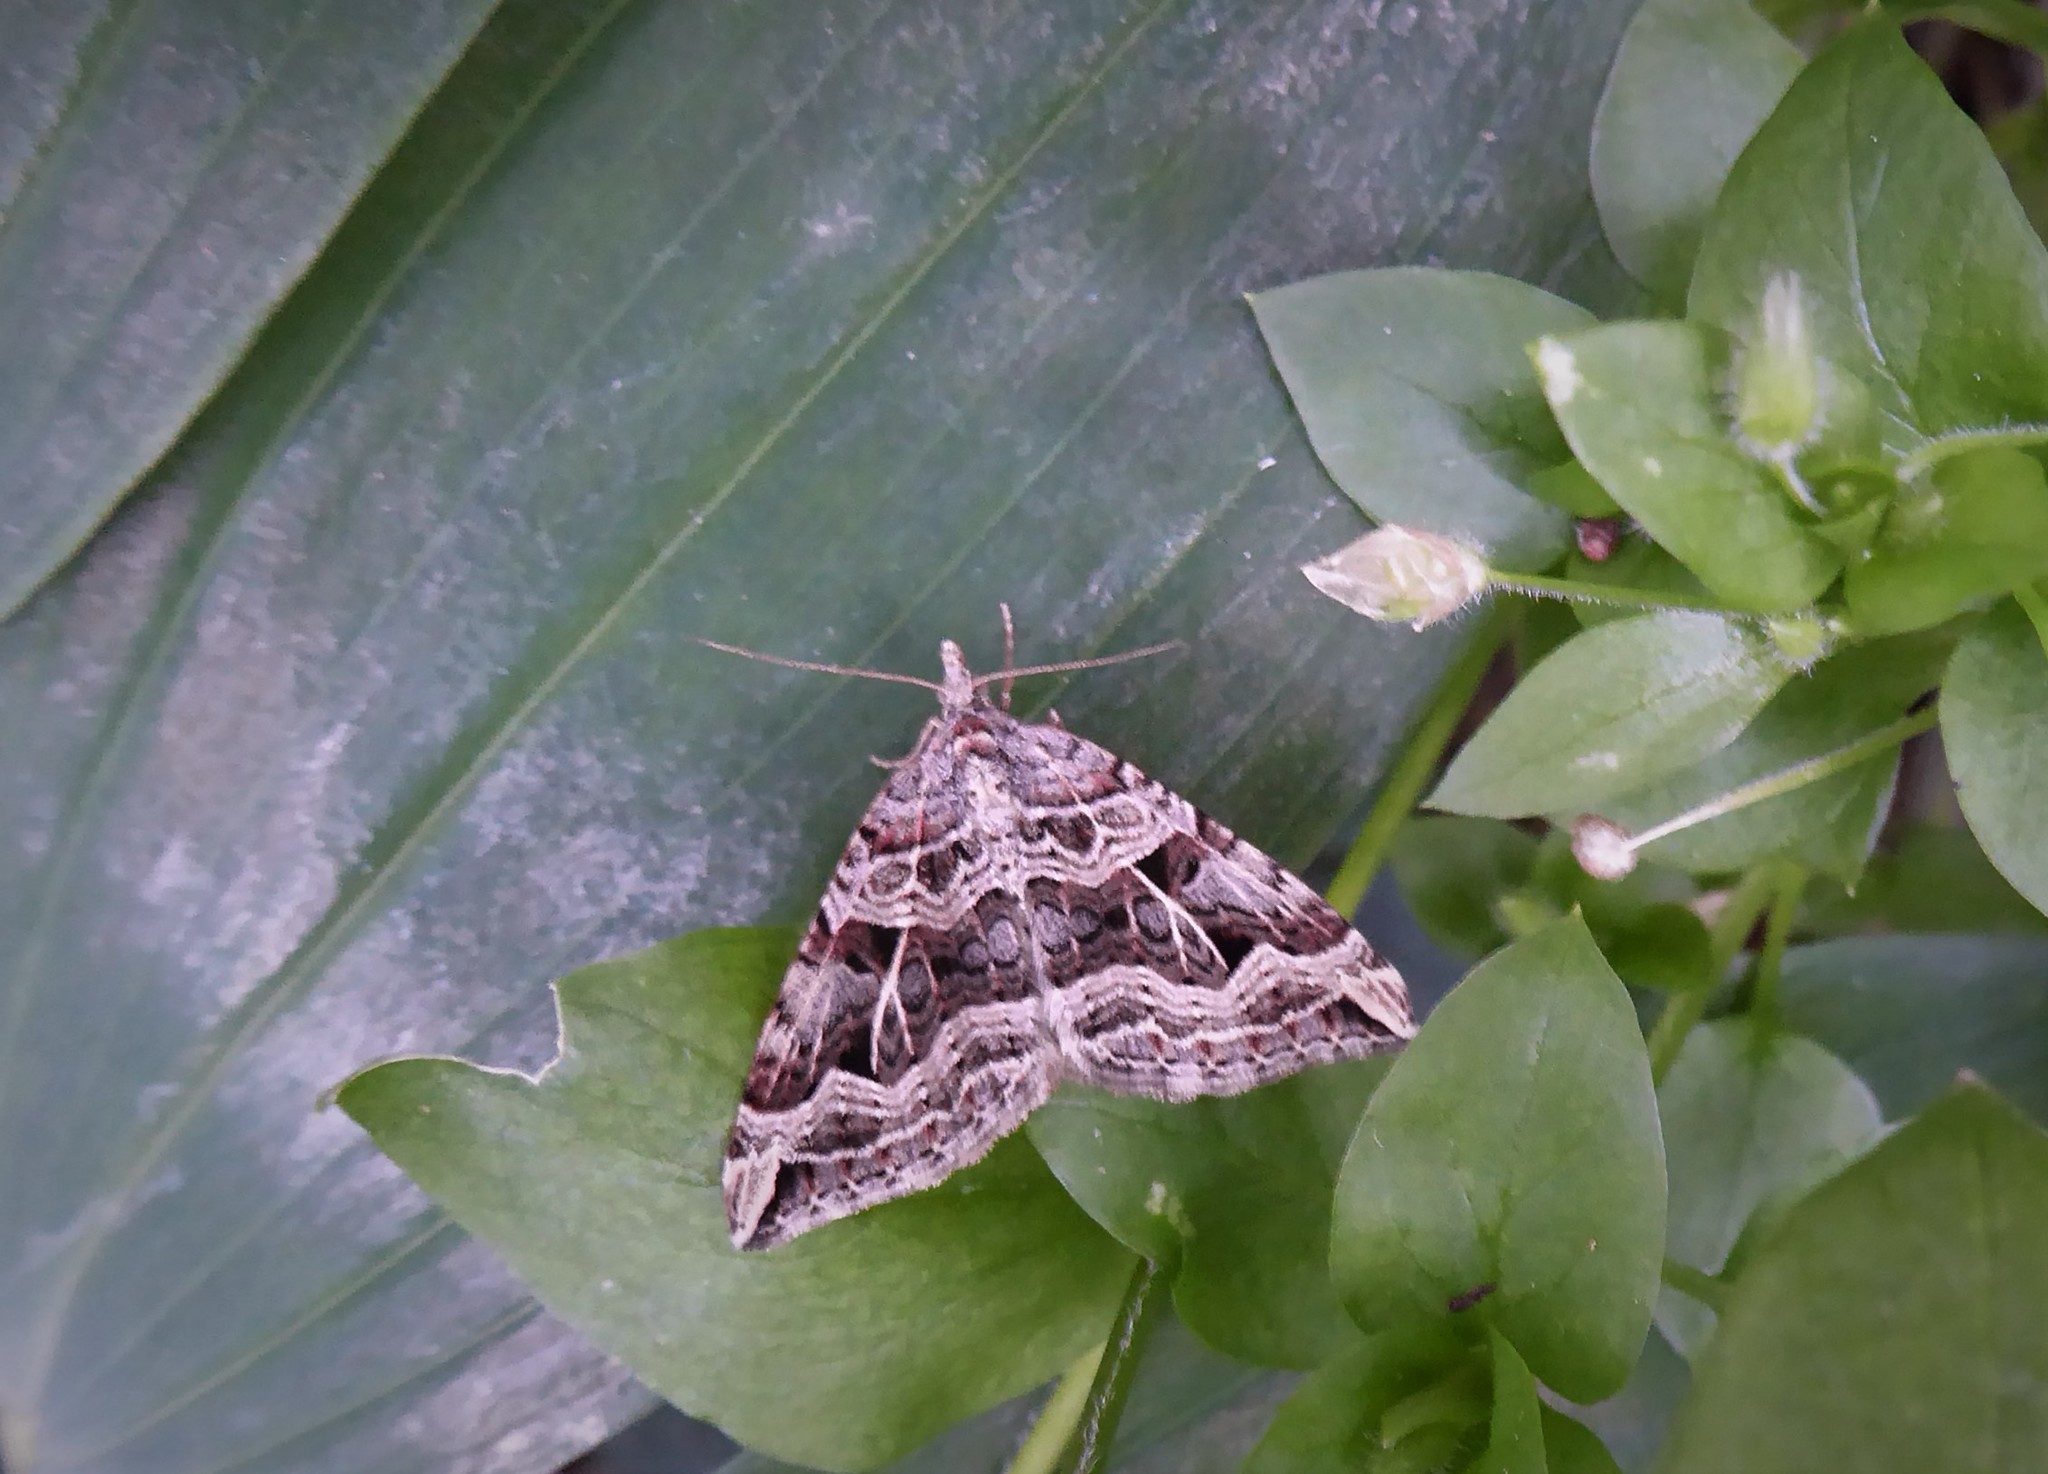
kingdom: Animalia
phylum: Arthropoda
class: Insecta
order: Lepidoptera
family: Geometridae
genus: Xanthorhoe
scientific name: Xanthorhoe semifissata
